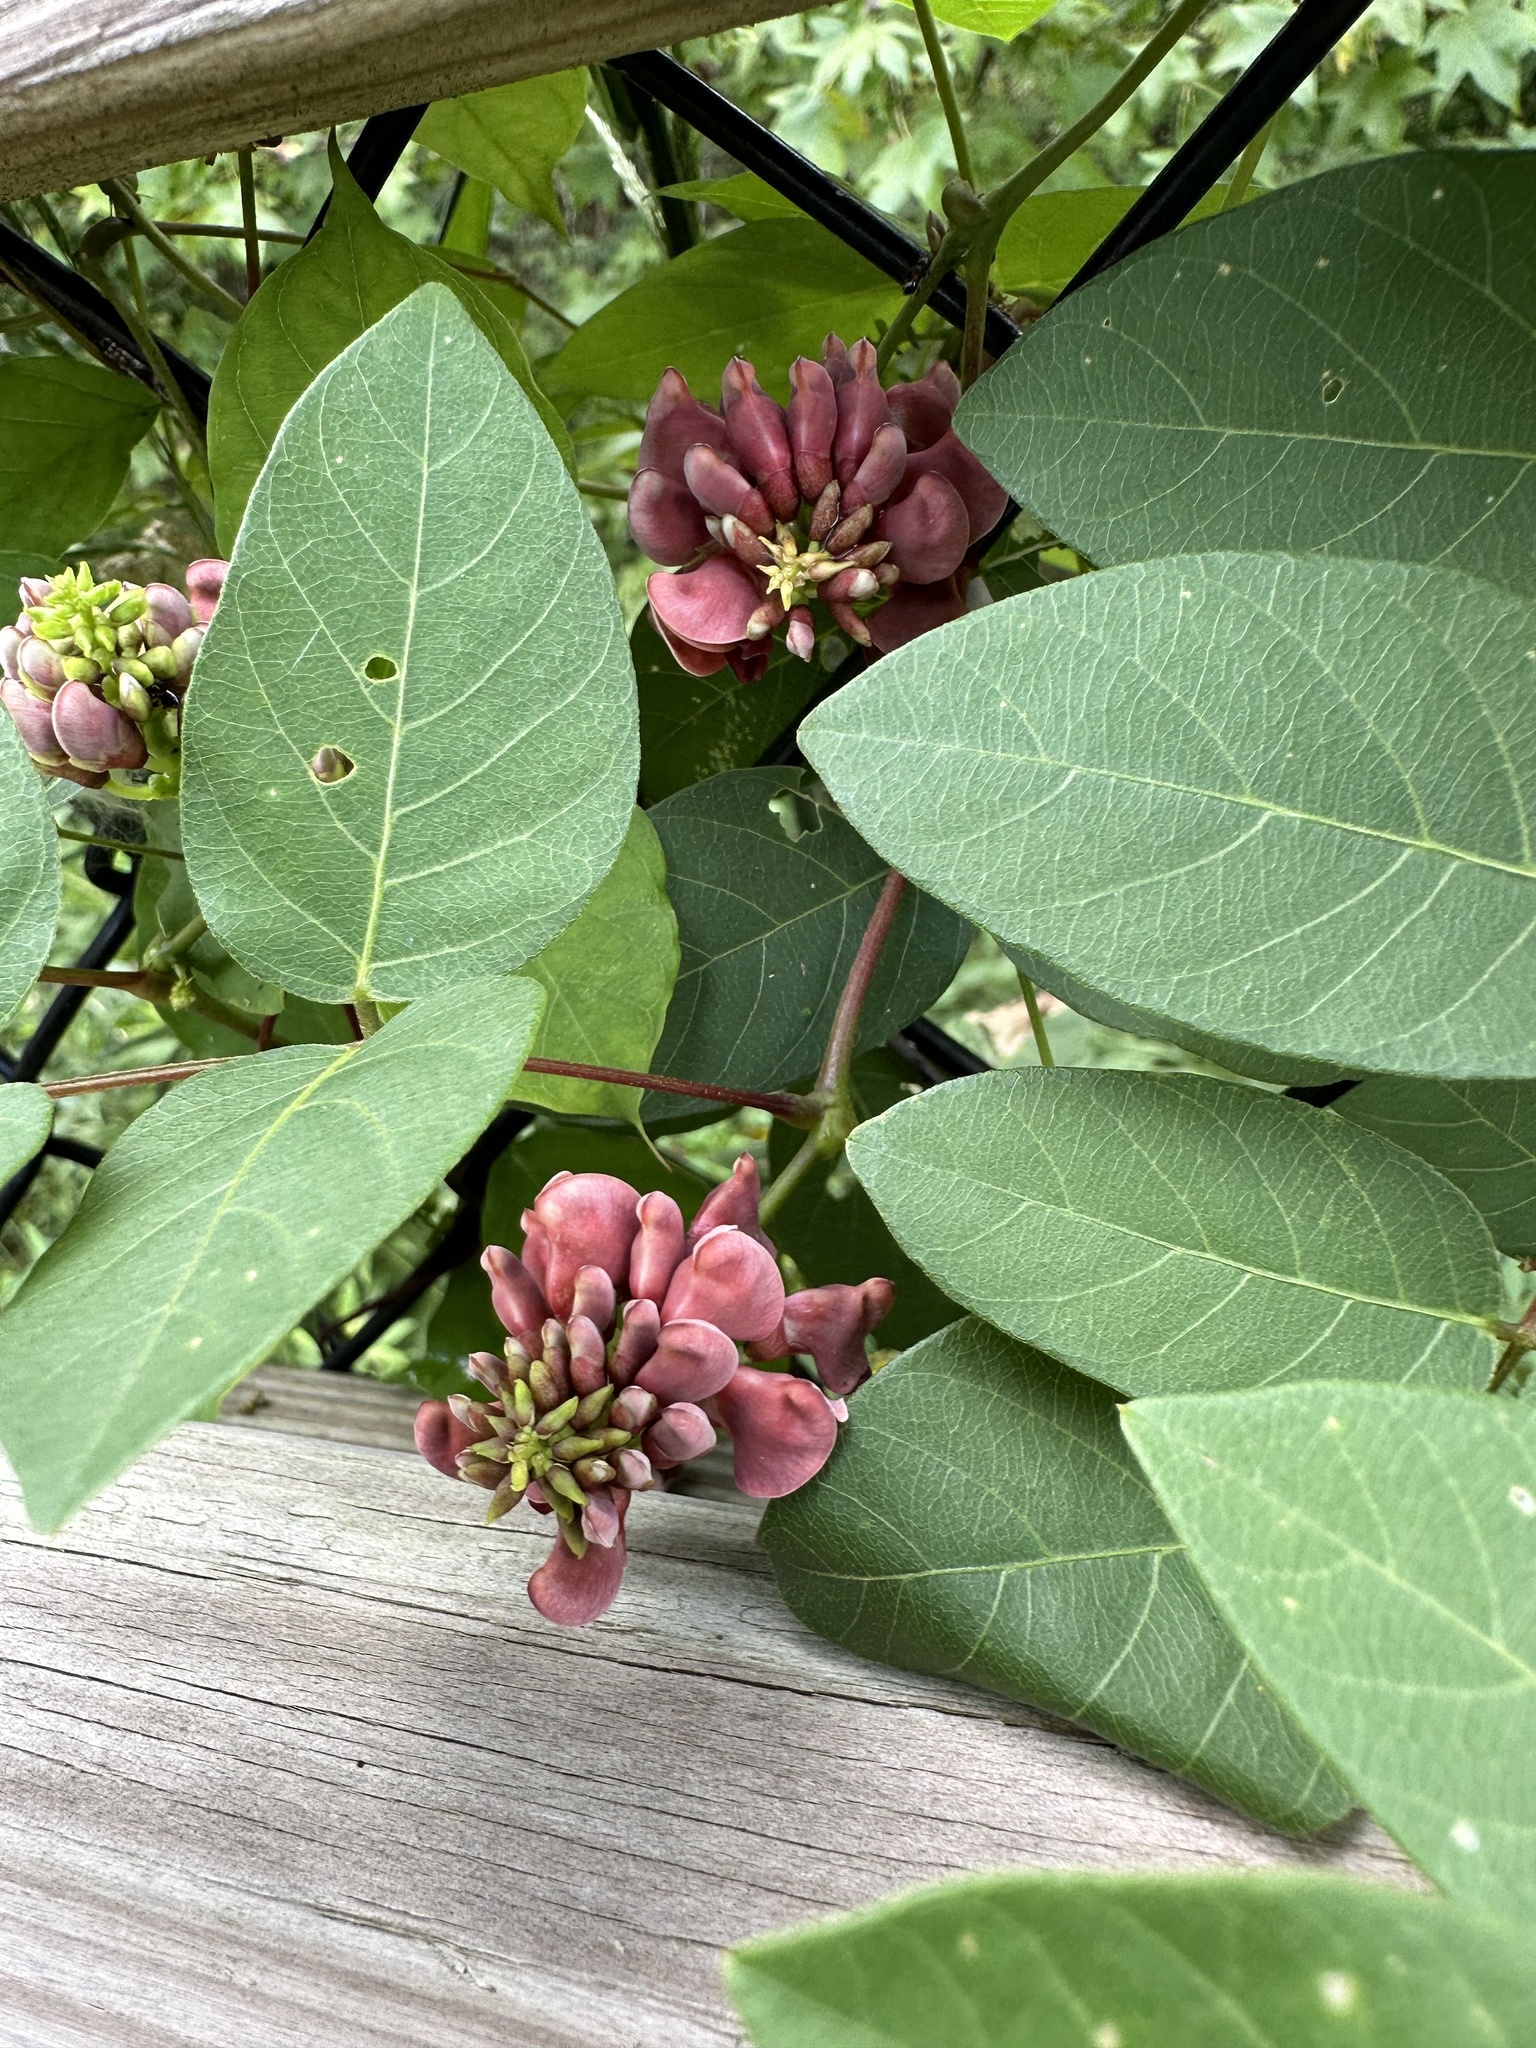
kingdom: Plantae
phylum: Tracheophyta
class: Magnoliopsida
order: Fabales
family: Fabaceae
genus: Apios
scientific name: Apios americana
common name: American potato-bean
